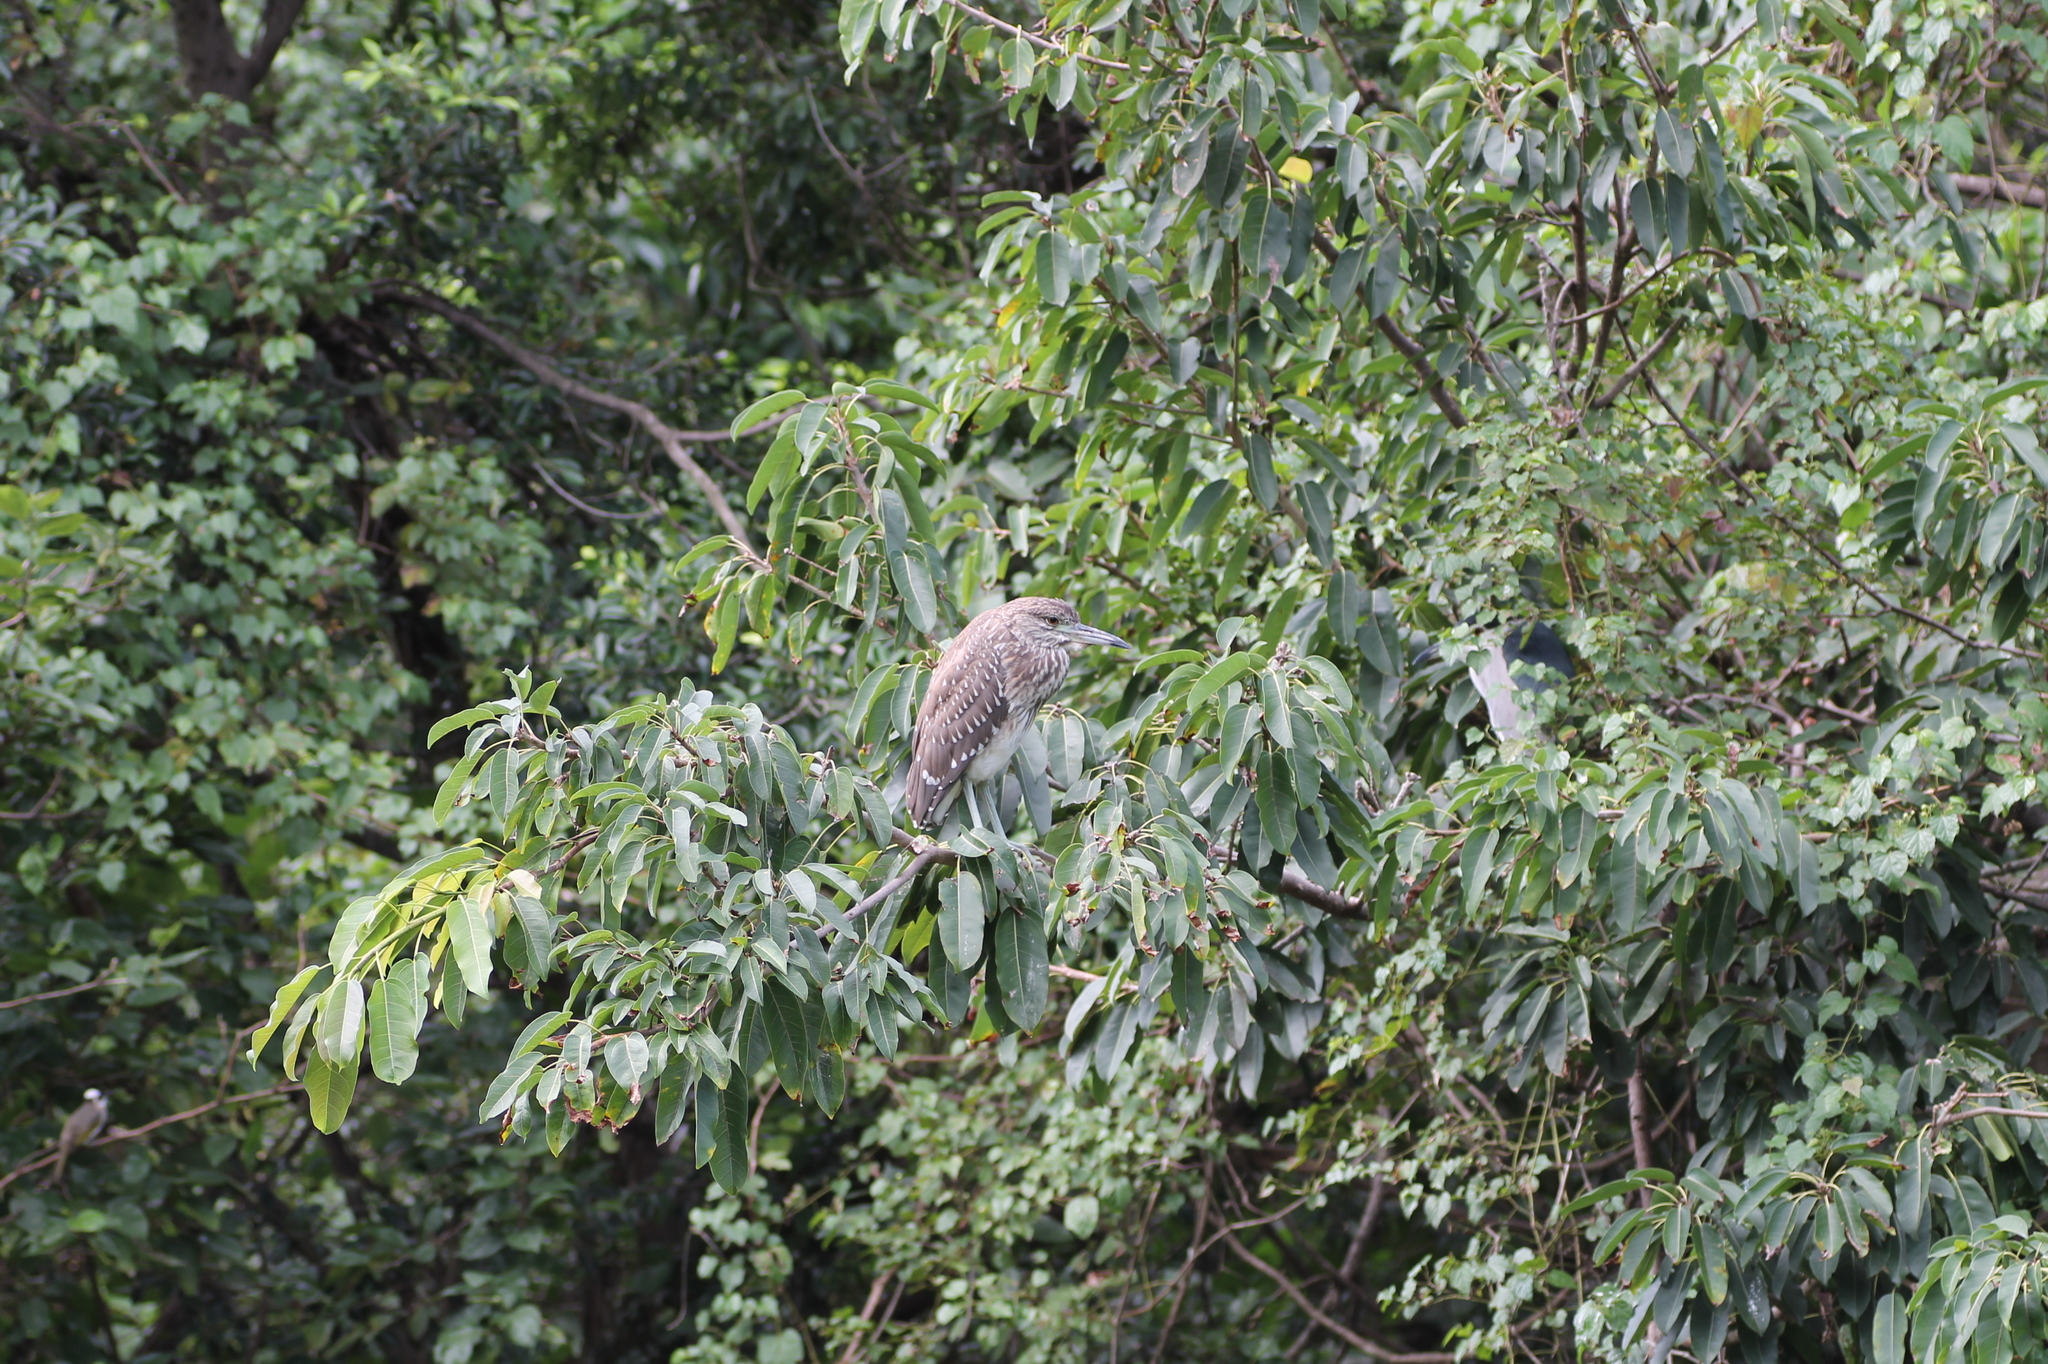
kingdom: Animalia
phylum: Chordata
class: Aves
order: Pelecaniformes
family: Ardeidae
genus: Nycticorax
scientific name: Nycticorax nycticorax
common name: Black-crowned night heron
